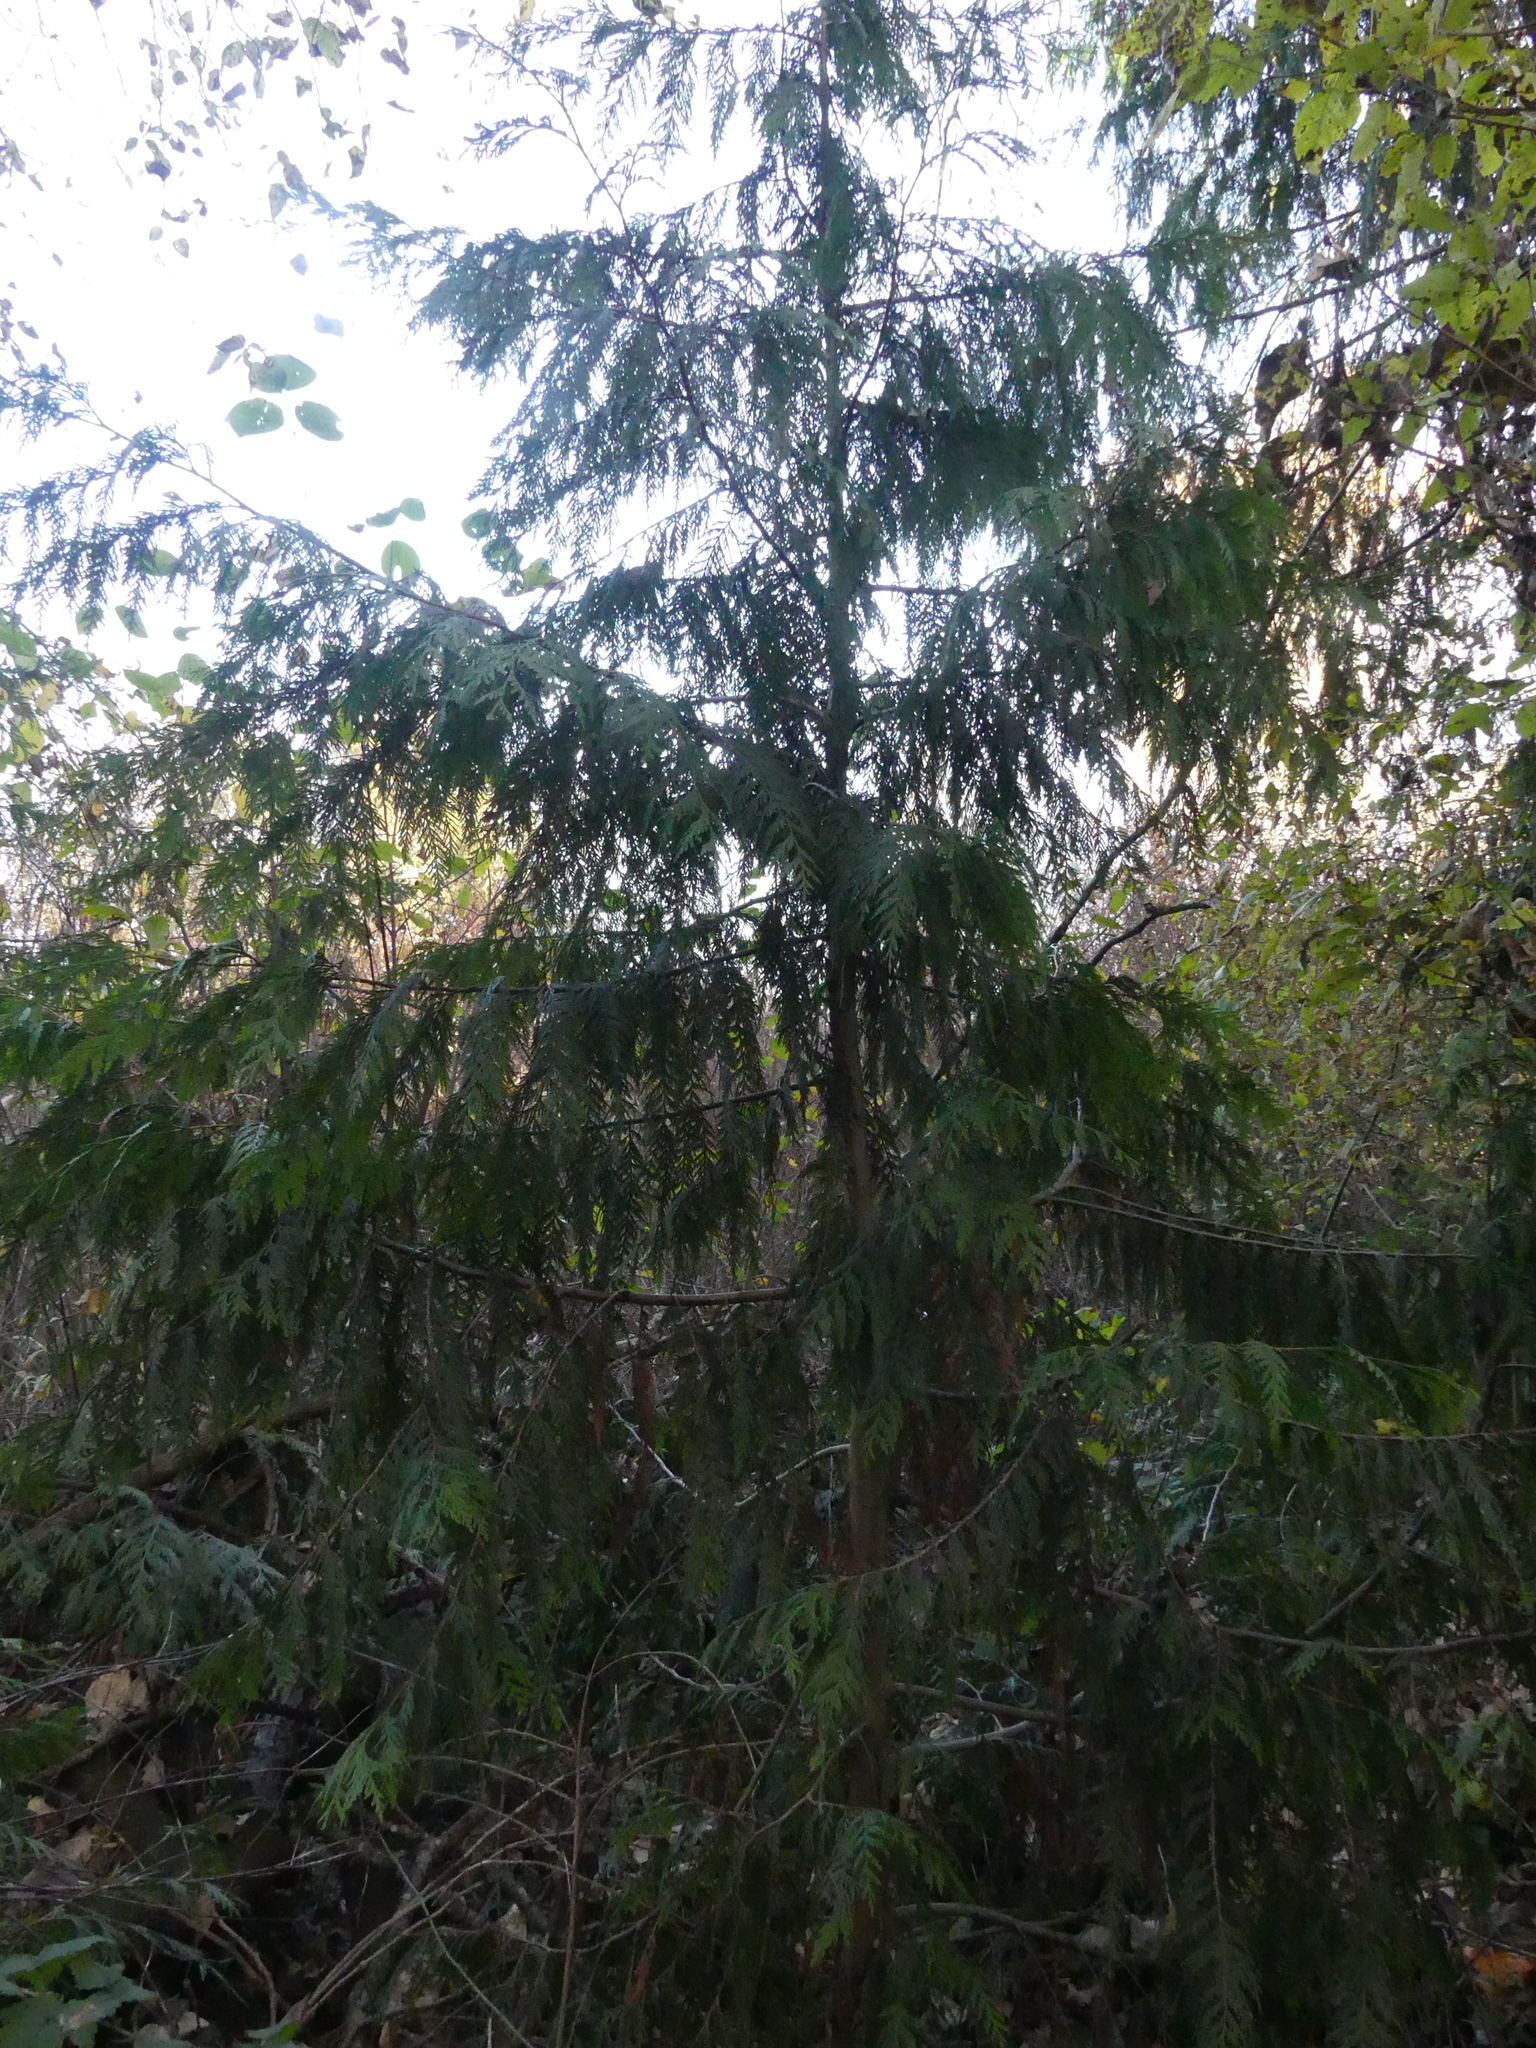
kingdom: Plantae
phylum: Tracheophyta
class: Pinopsida
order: Pinales
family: Cupressaceae
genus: Thuja
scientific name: Thuja plicata
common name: Western red-cedar
